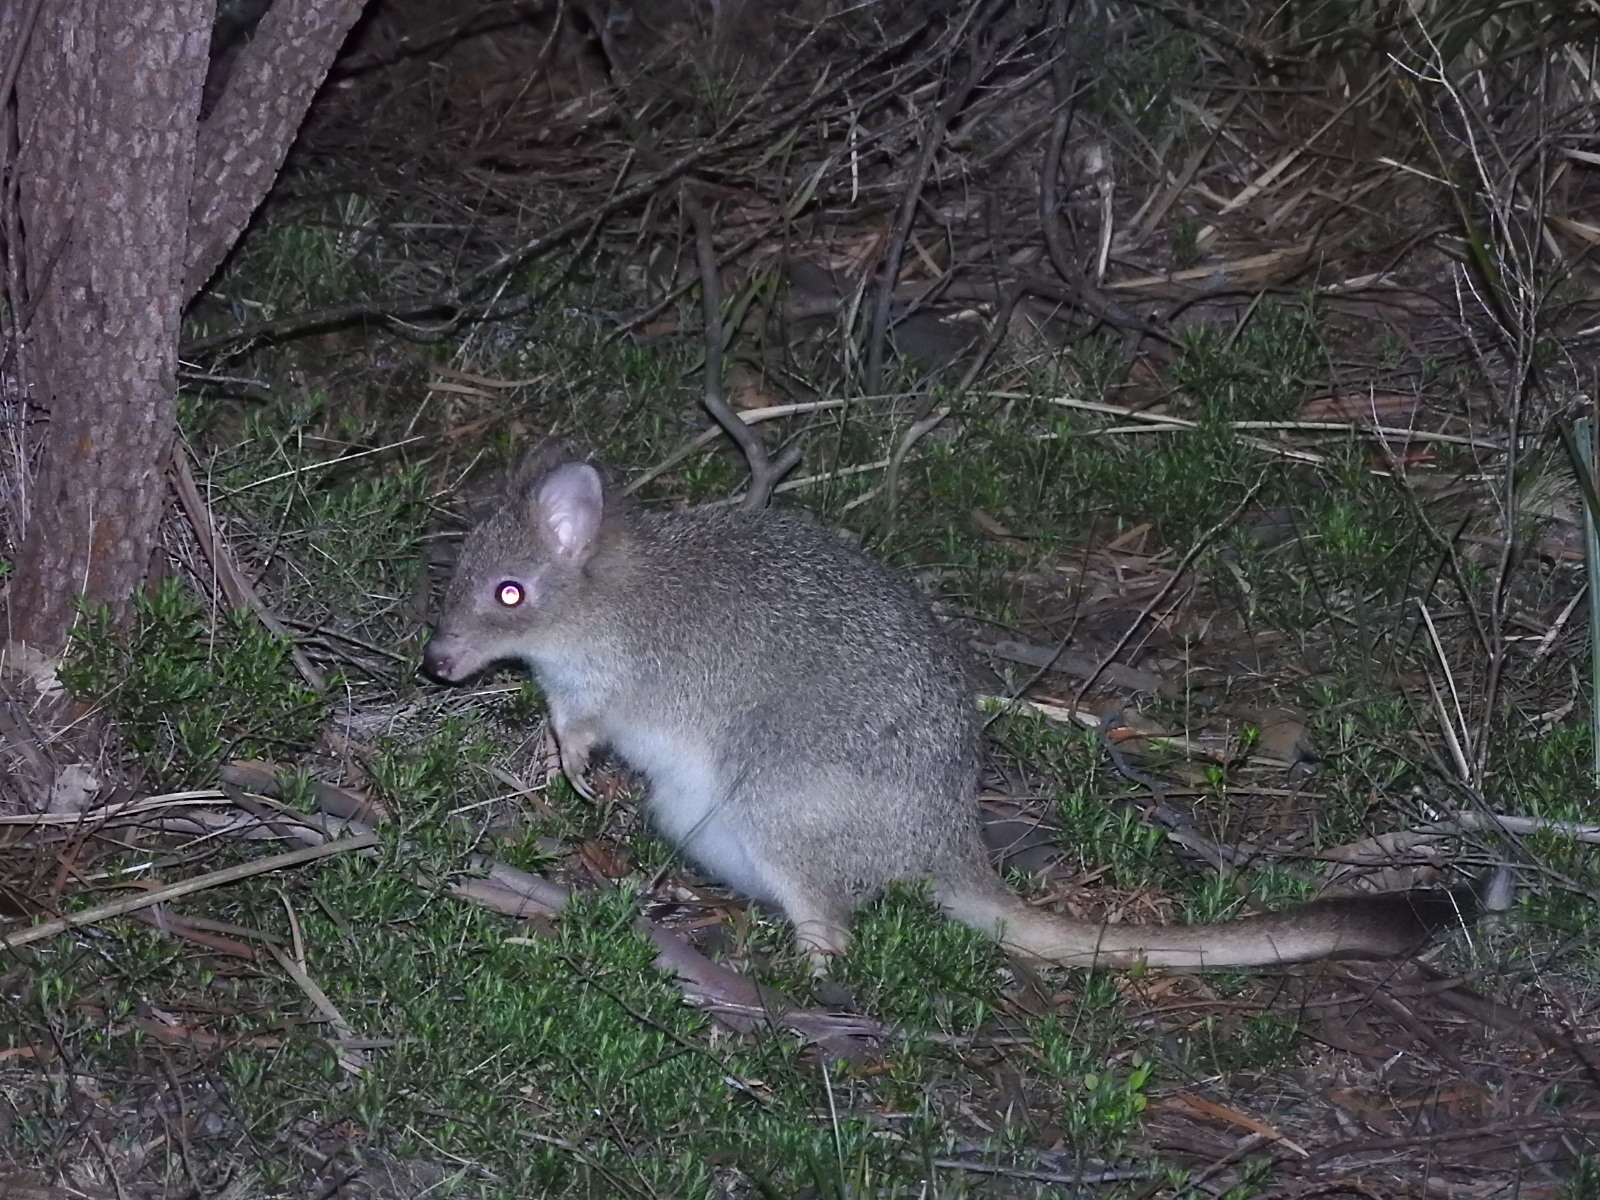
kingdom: Animalia
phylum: Chordata
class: Mammalia
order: Diprotodontia
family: Potoroidae
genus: Bettongia
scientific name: Bettongia gaimardi
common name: Eastern bettong
